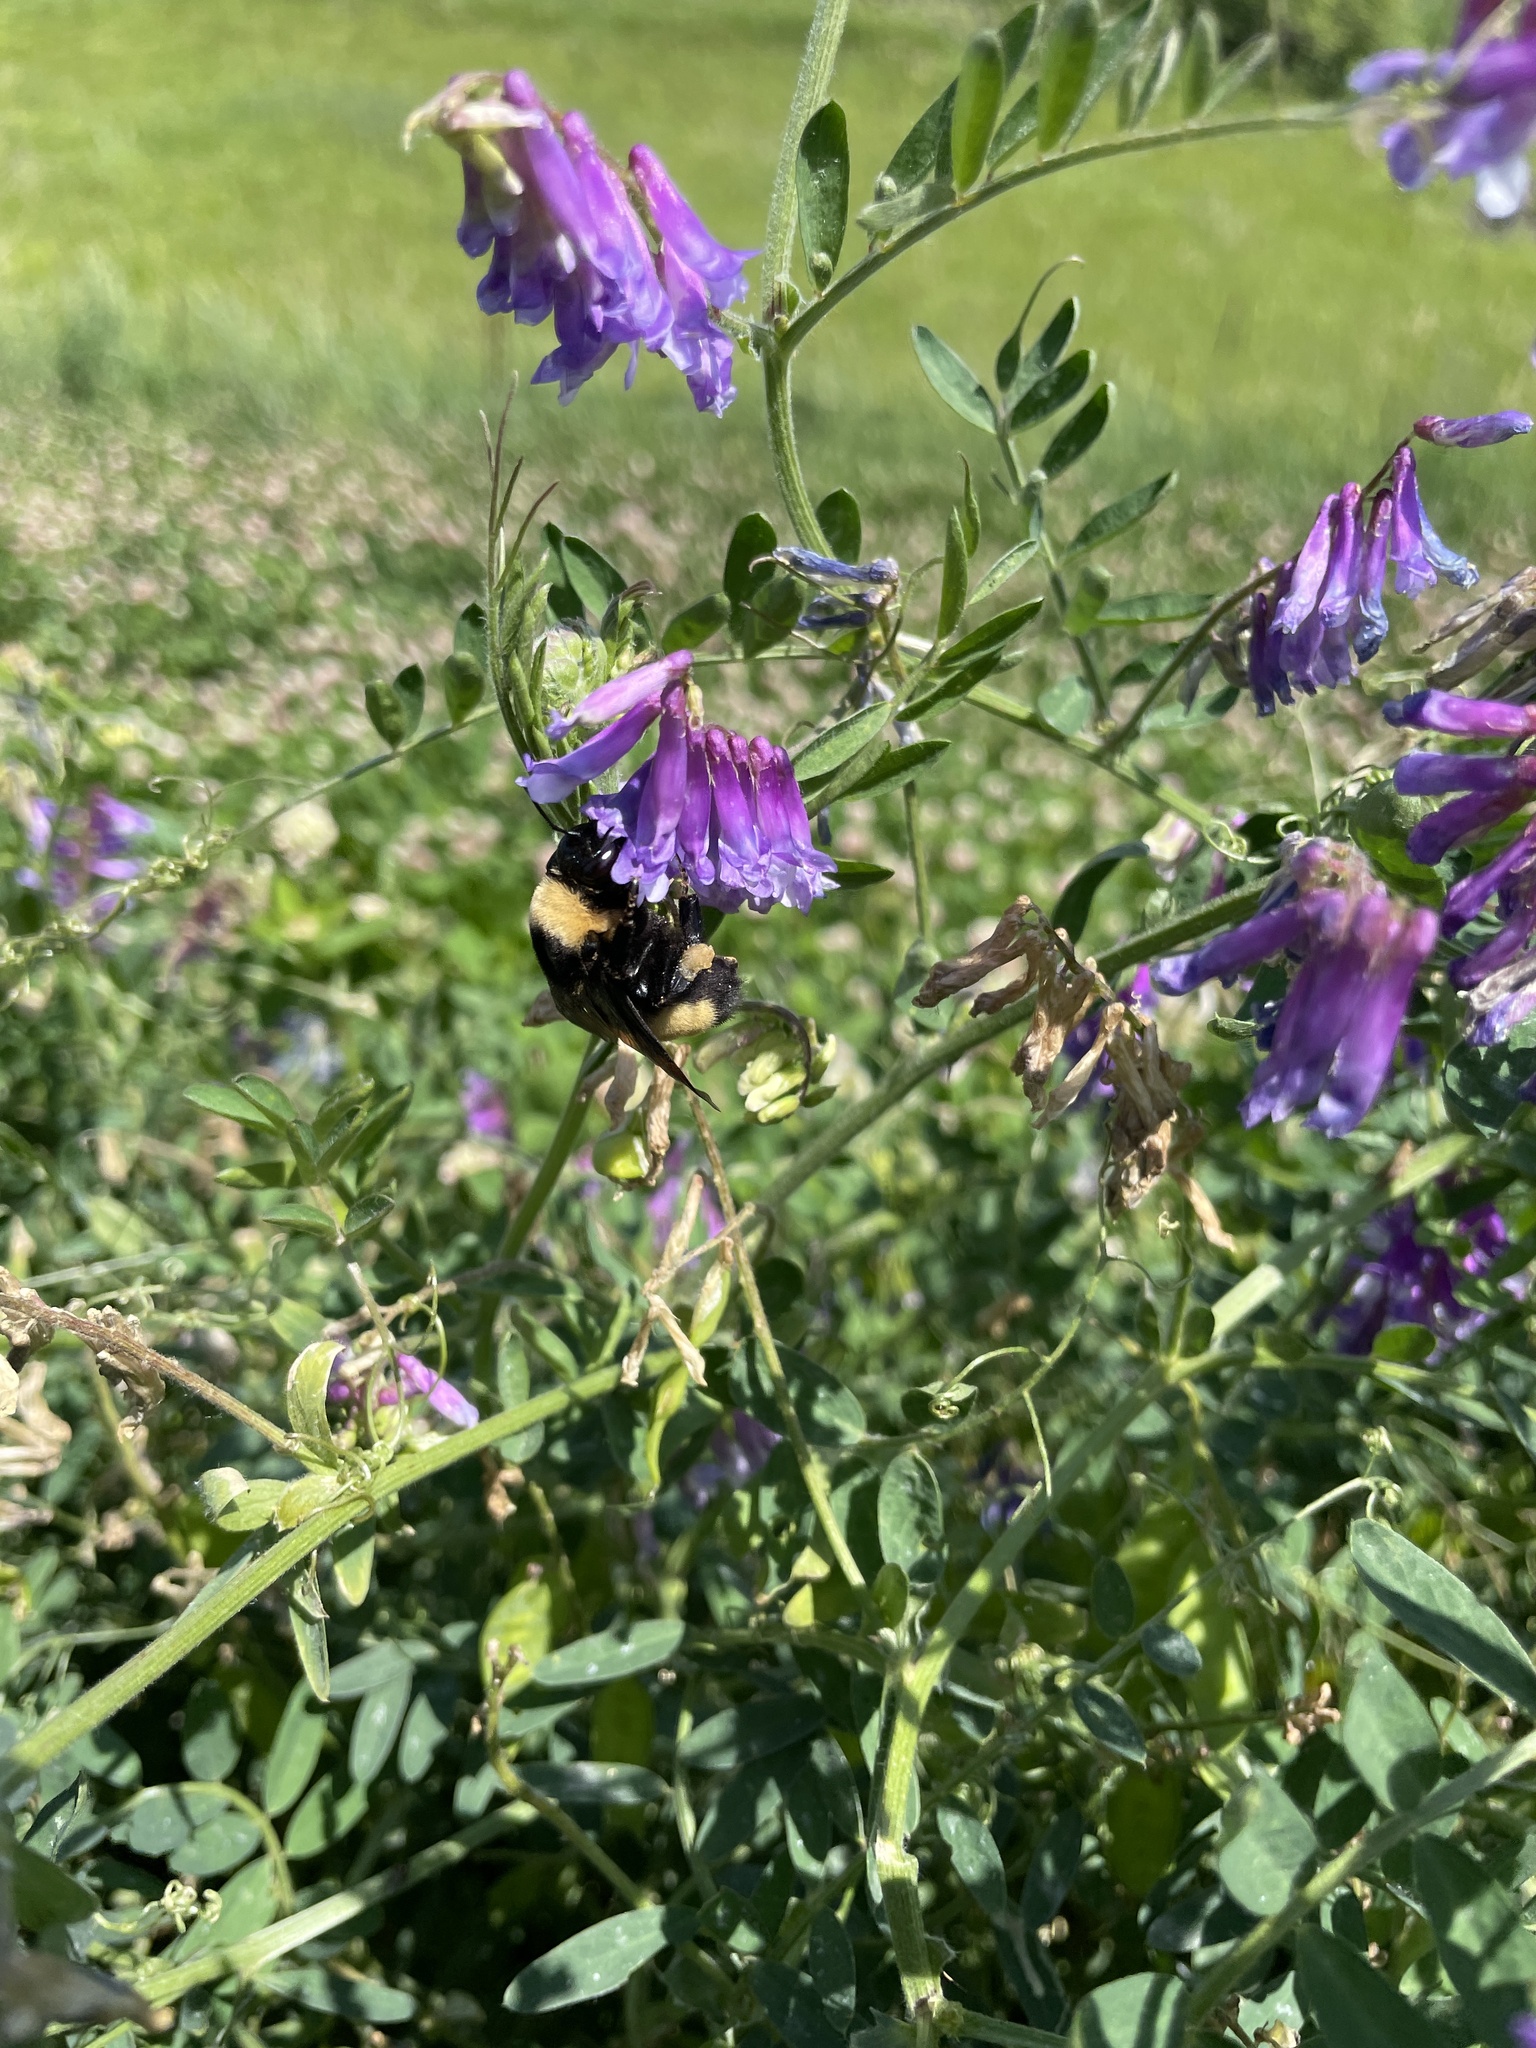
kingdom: Animalia
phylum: Arthropoda
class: Insecta
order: Hymenoptera
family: Apidae
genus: Bombus
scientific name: Bombus auricomus
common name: Black and gold bumble bee
